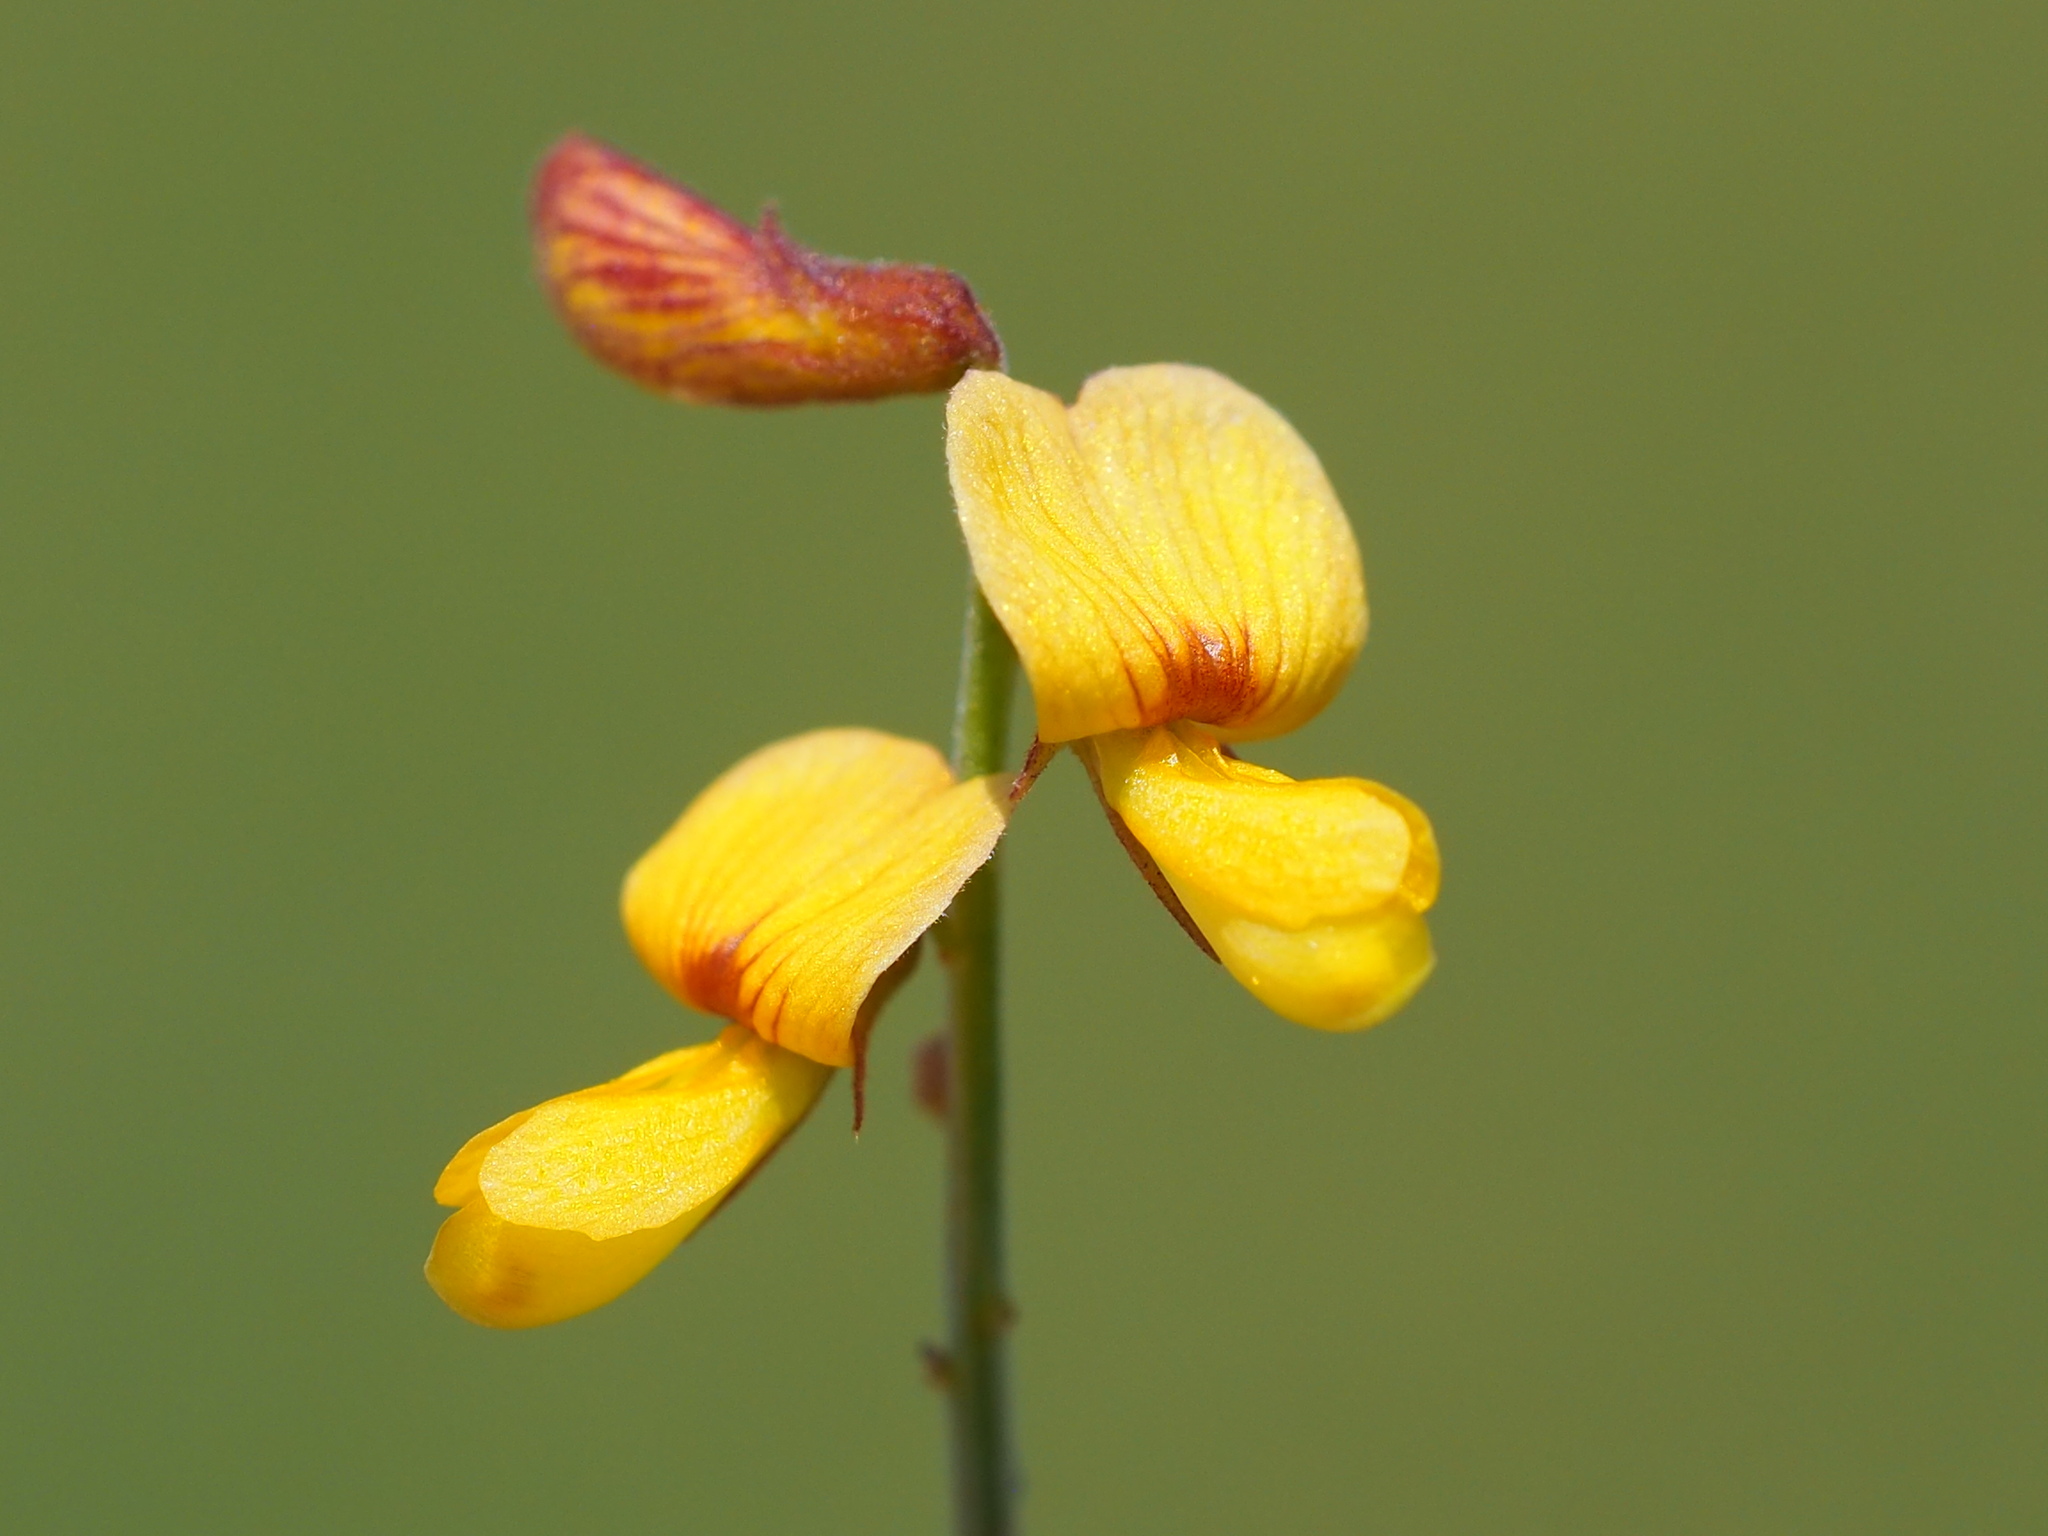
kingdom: Plantae
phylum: Tracheophyta
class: Magnoliopsida
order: Fabales
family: Fabaceae
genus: Rhynchosia
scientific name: Rhynchosia minima
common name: Least snoutbean
